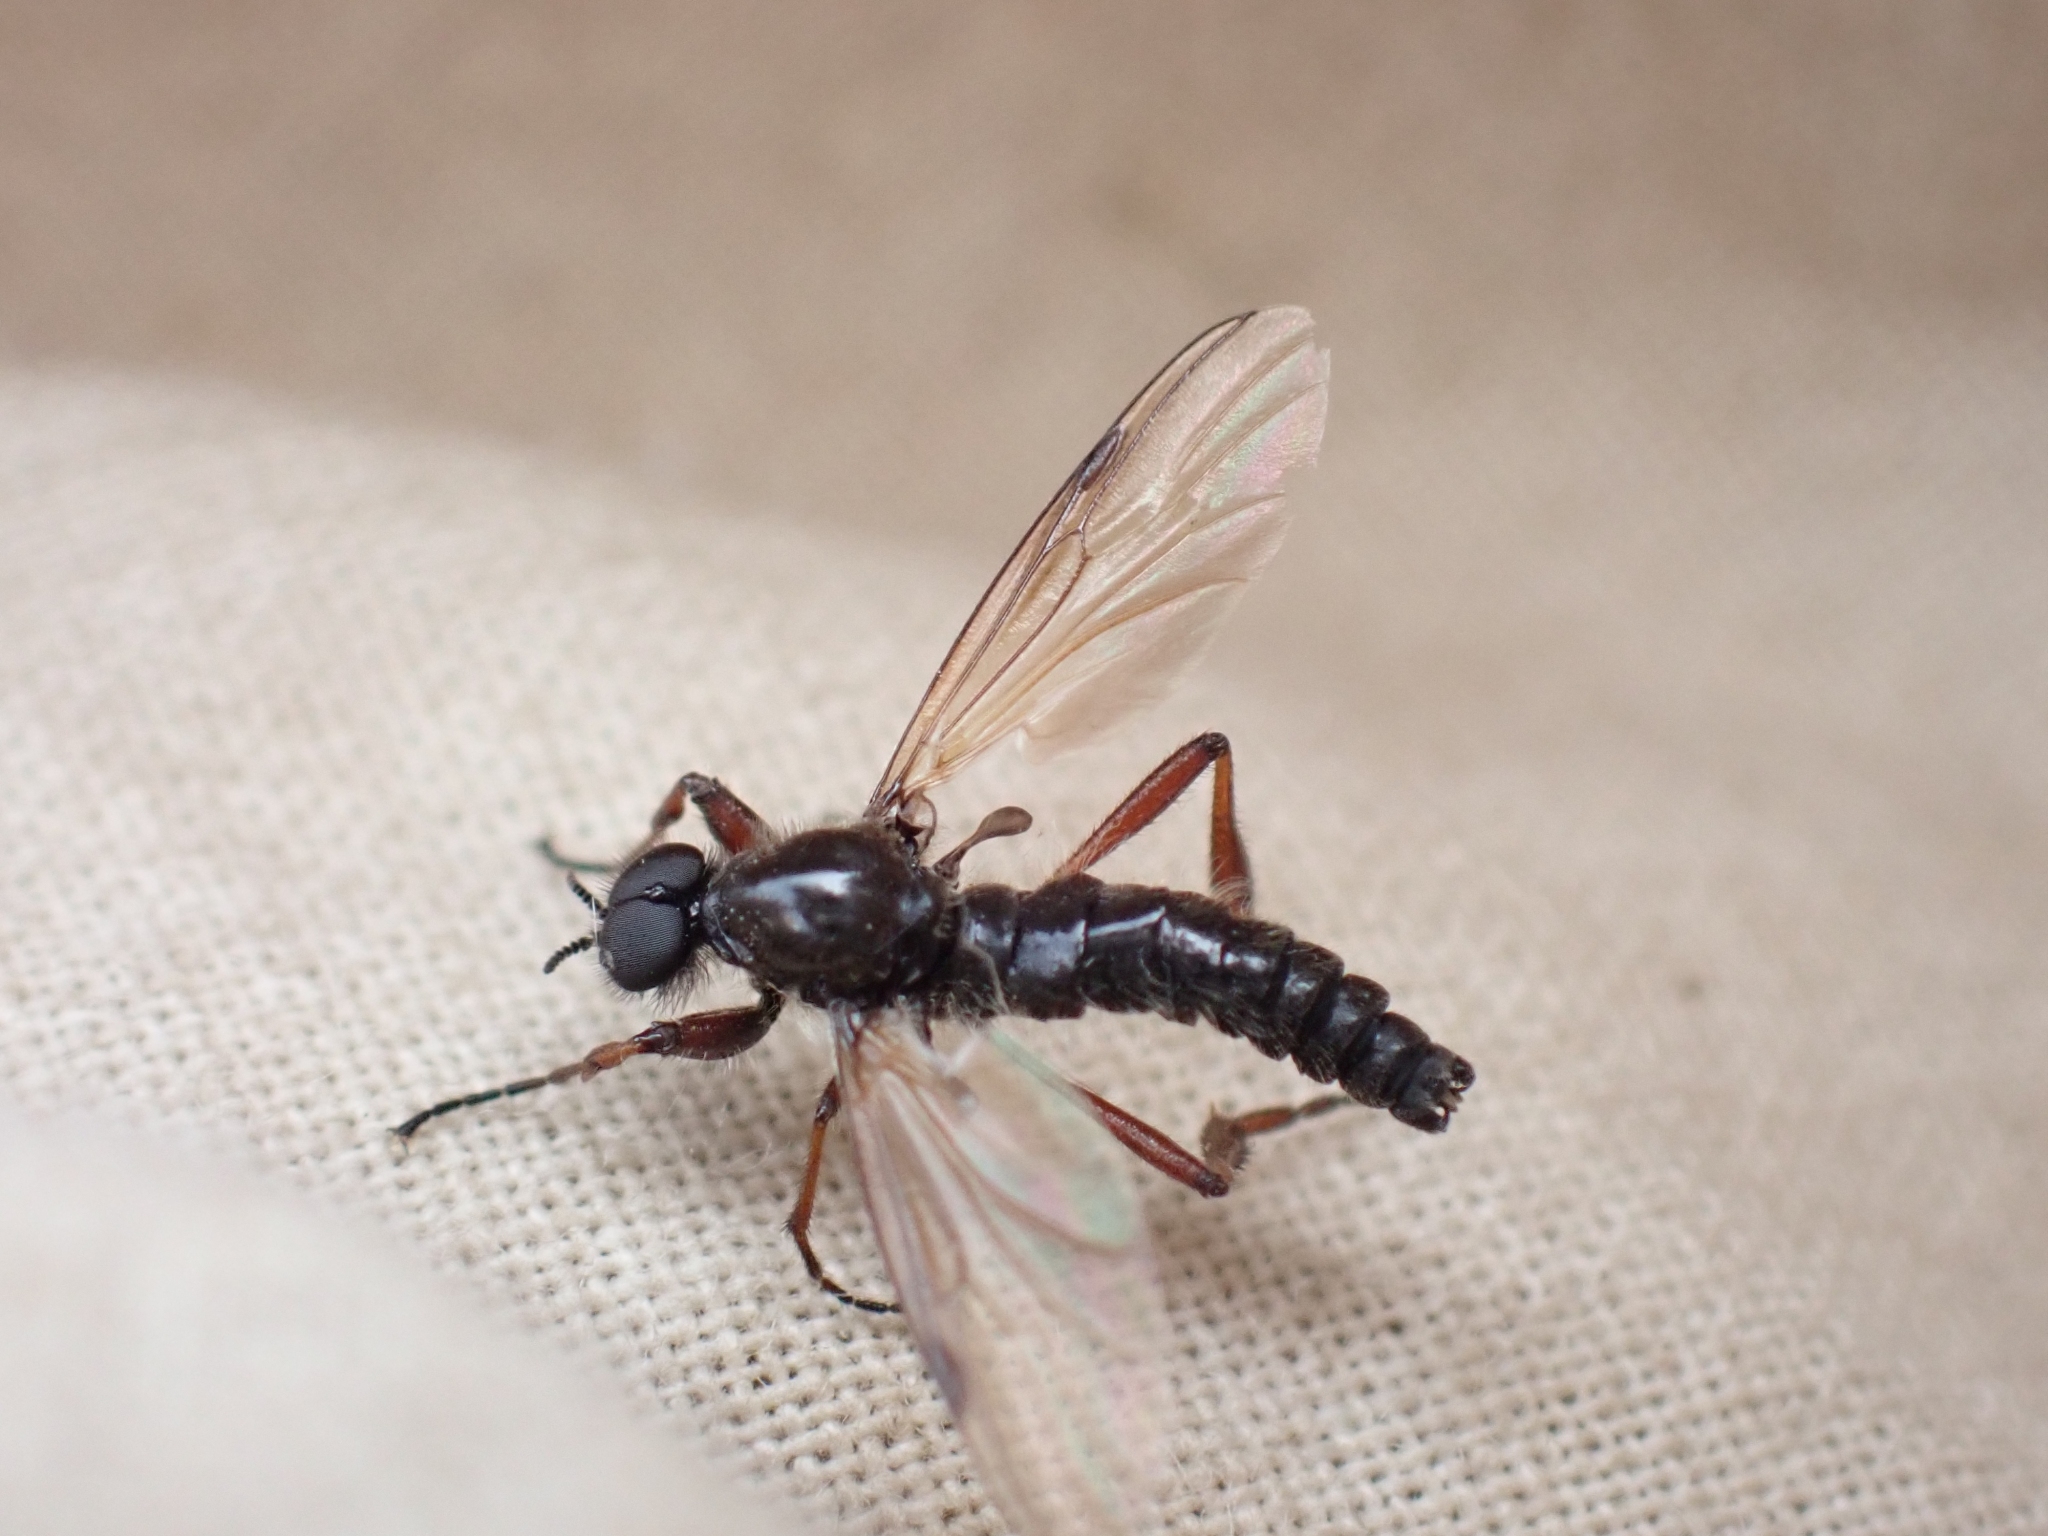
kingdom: Animalia
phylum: Arthropoda
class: Insecta
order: Diptera
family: Bibionidae
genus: Bibio
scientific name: Bibio brunnipes
